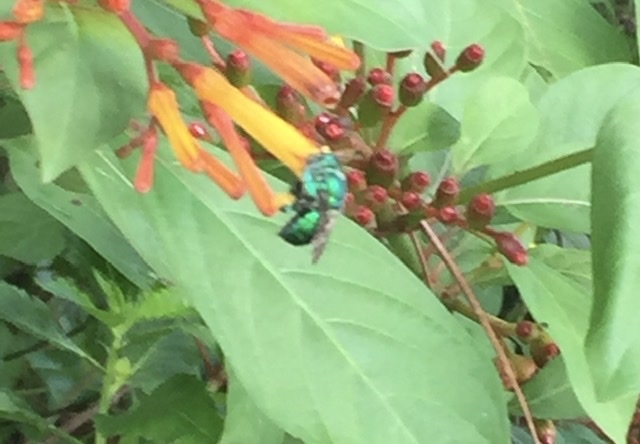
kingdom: Animalia
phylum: Arthropoda
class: Insecta
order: Hymenoptera
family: Apidae
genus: Euglossa
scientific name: Euglossa dilemma
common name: Green orchid bee
